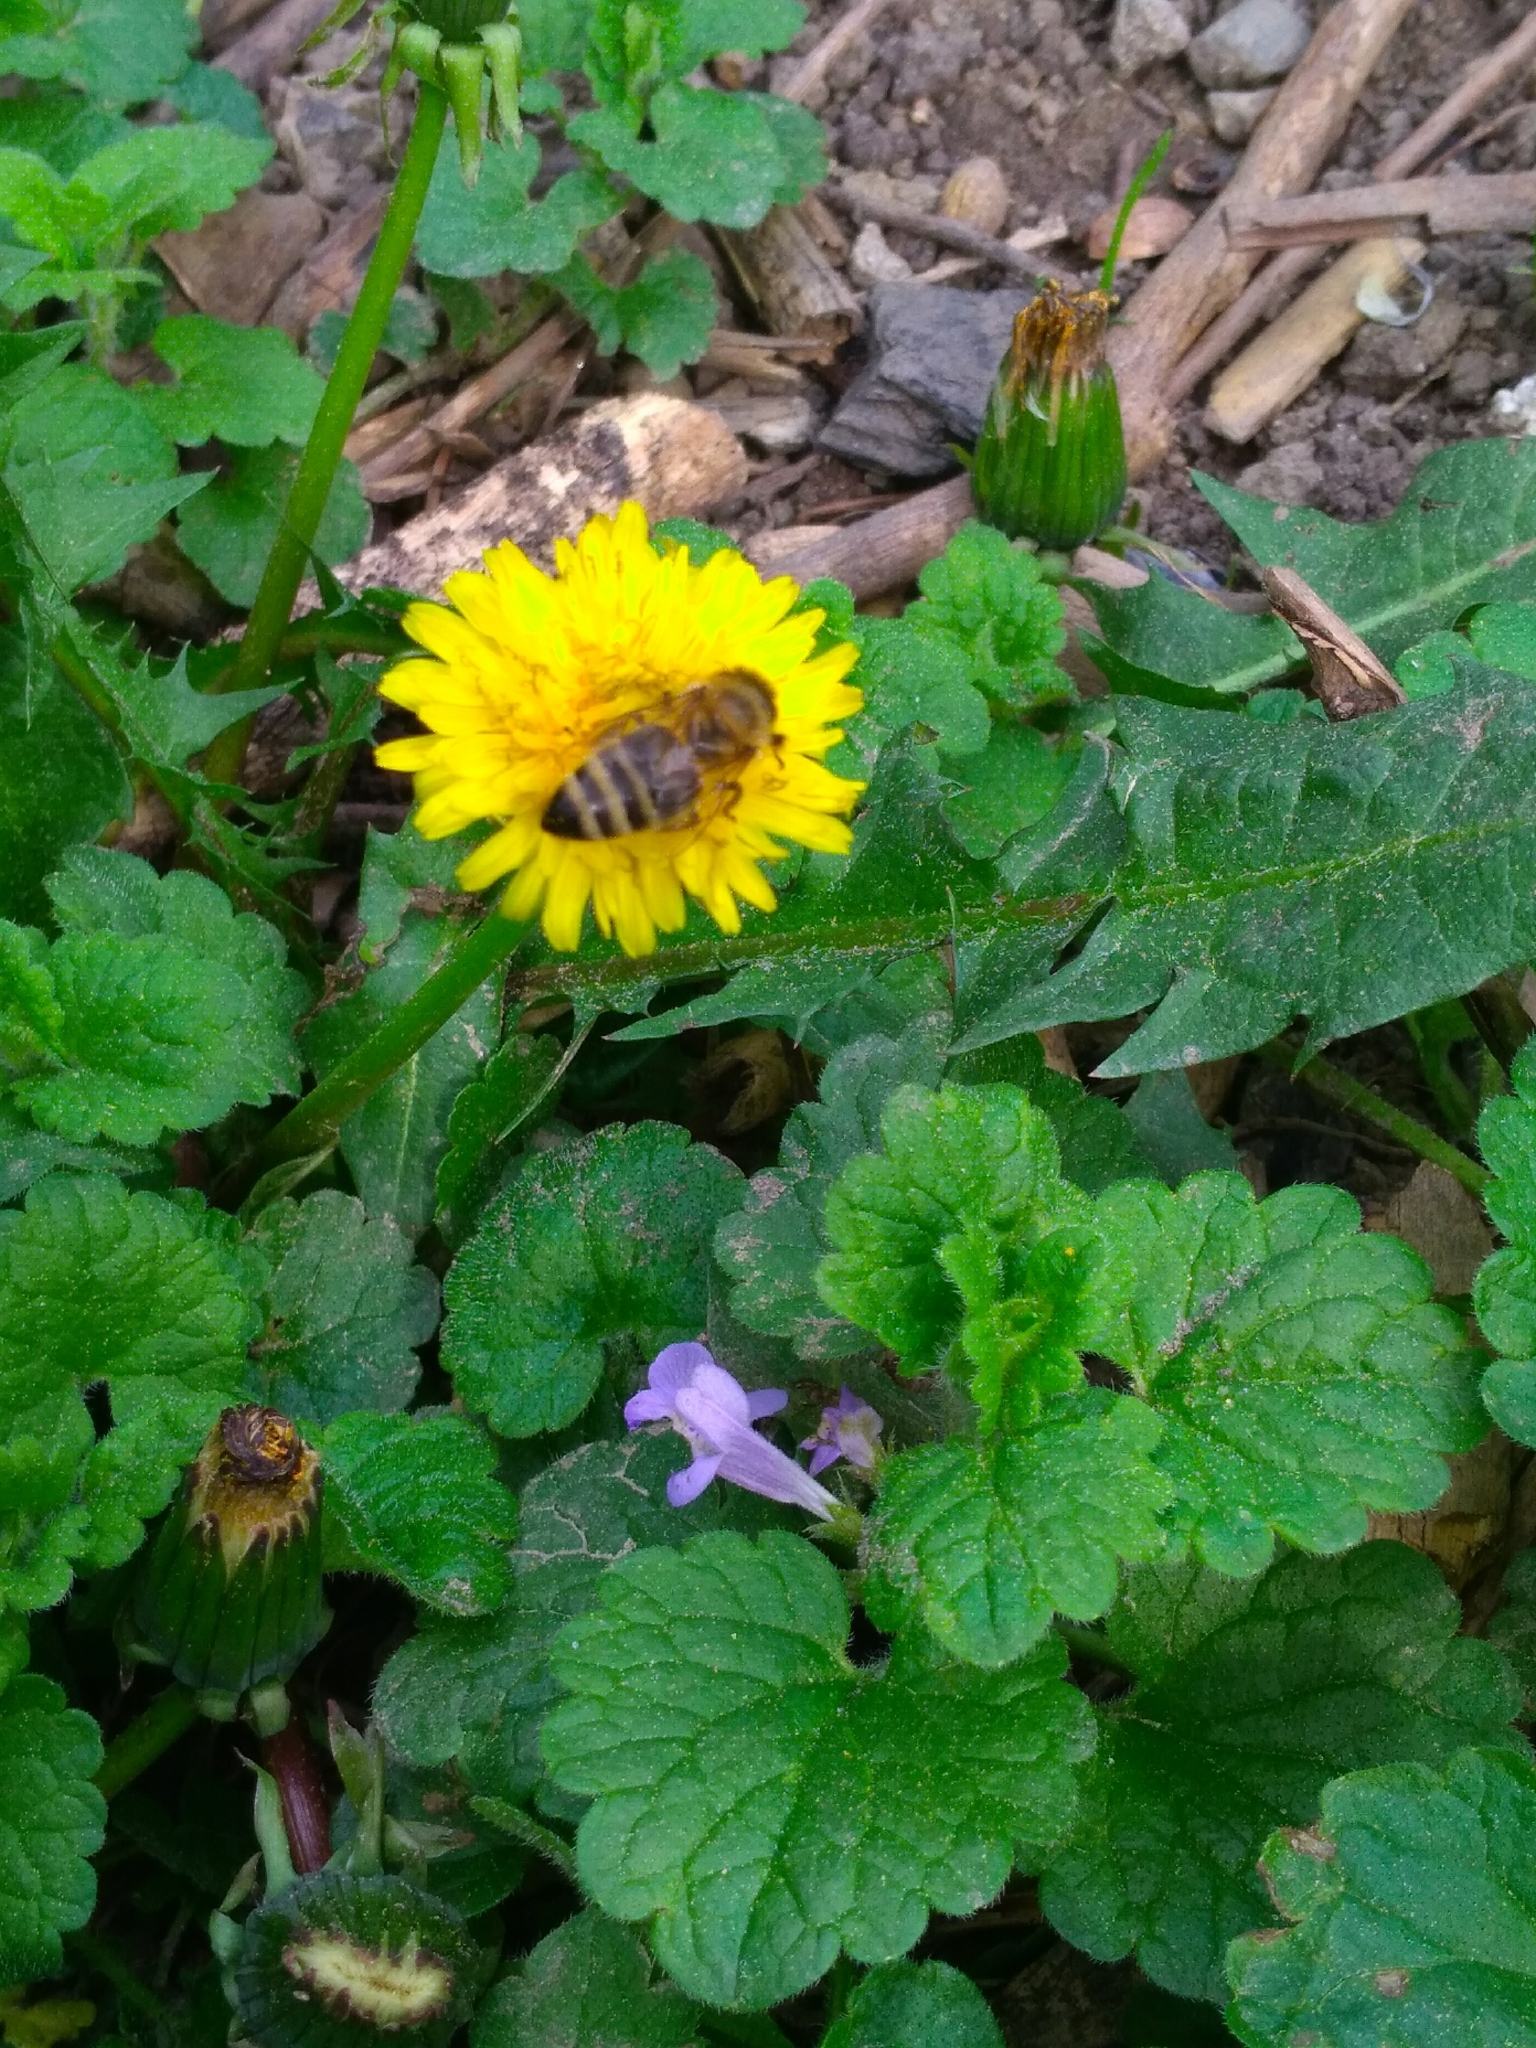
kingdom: Animalia
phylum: Arthropoda
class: Insecta
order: Hymenoptera
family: Apidae
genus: Apis
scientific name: Apis mellifera
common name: Honey bee
